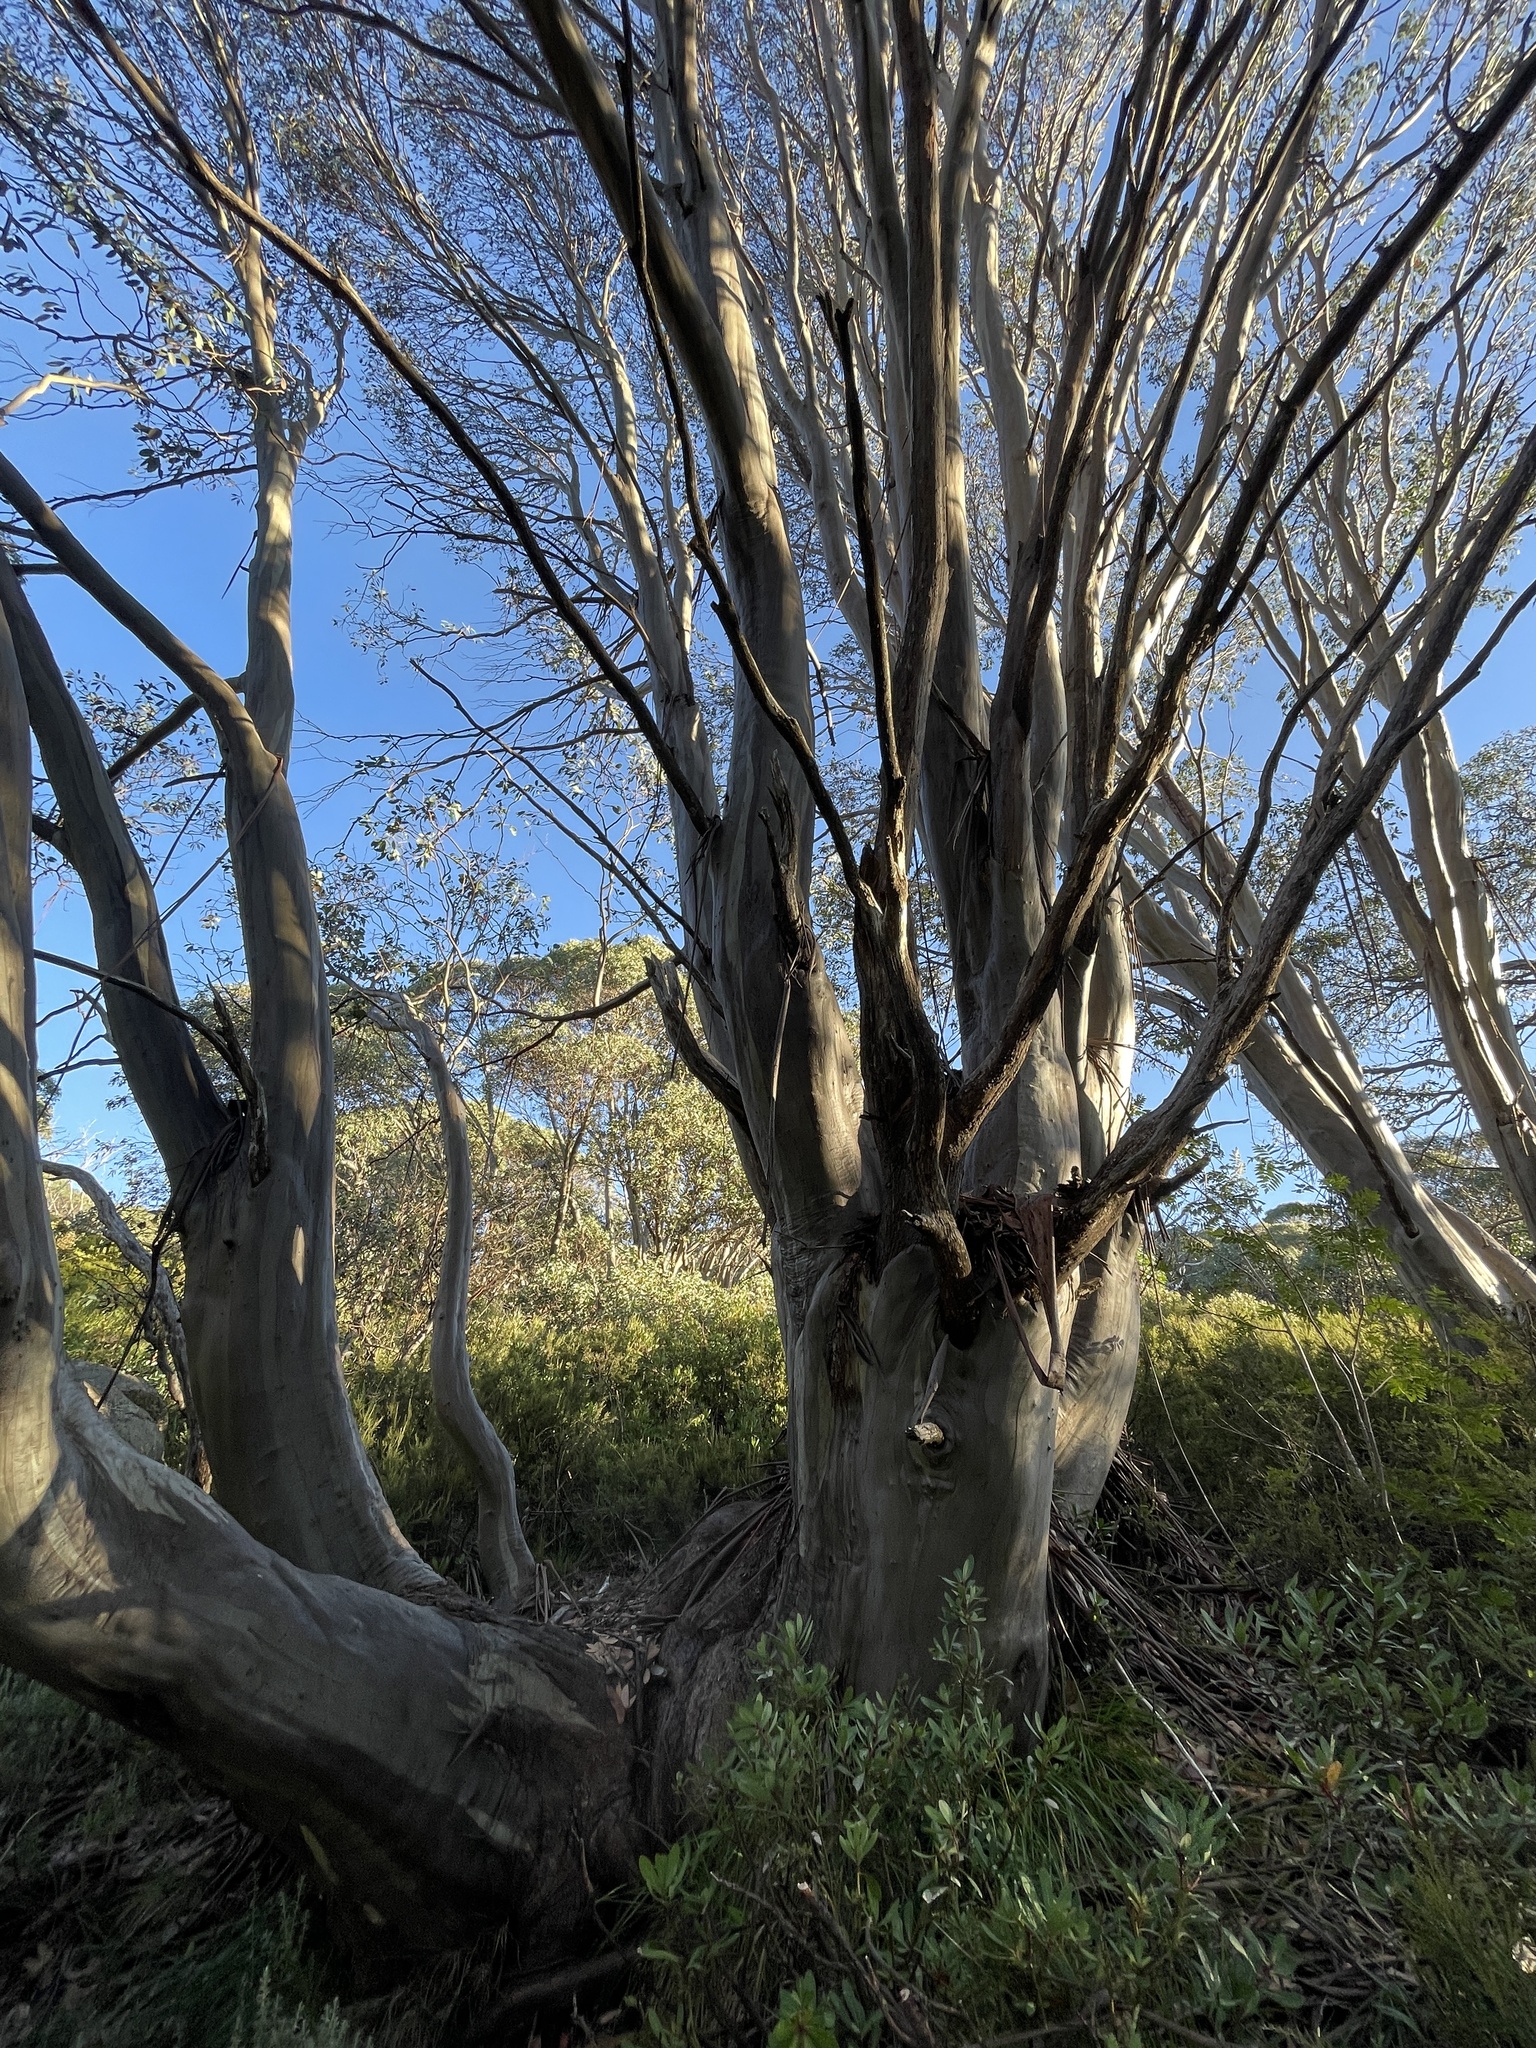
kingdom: Plantae
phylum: Tracheophyta
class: Magnoliopsida
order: Myrtales
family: Myrtaceae
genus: Eucalyptus
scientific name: Eucalyptus pauciflora
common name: Snow gum
